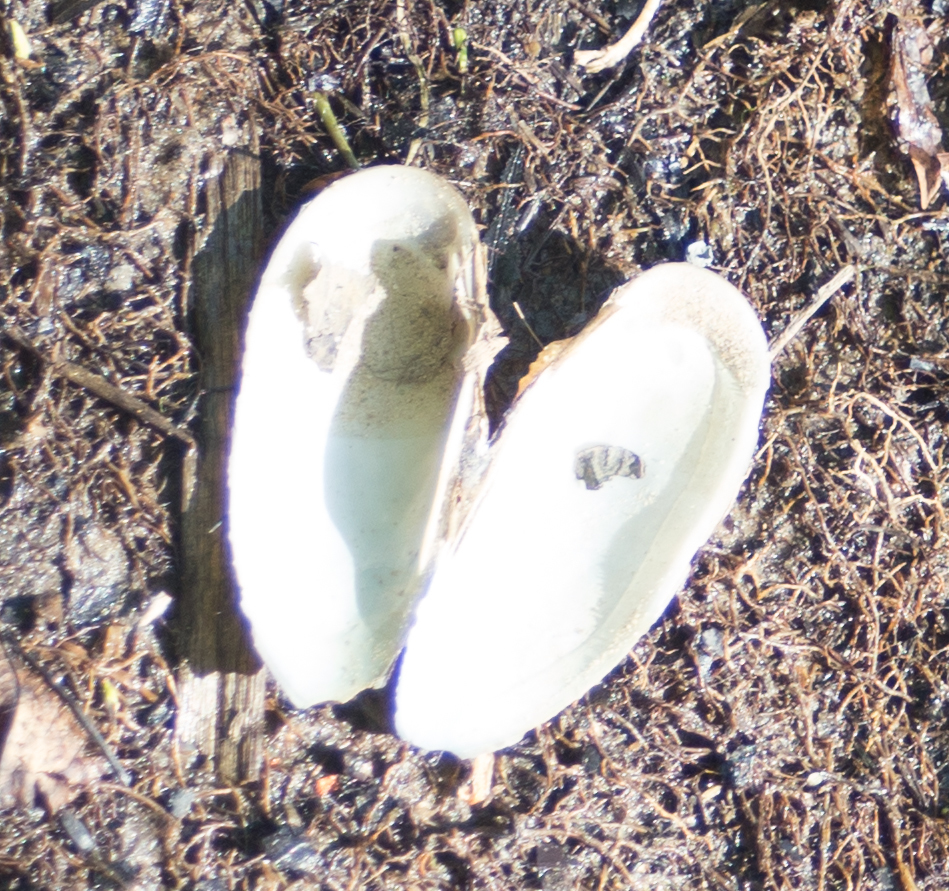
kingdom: Animalia
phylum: Mollusca
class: Bivalvia
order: Unionida
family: Unionidae
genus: Unio
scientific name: Unio pictorum
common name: Painter's mussel
